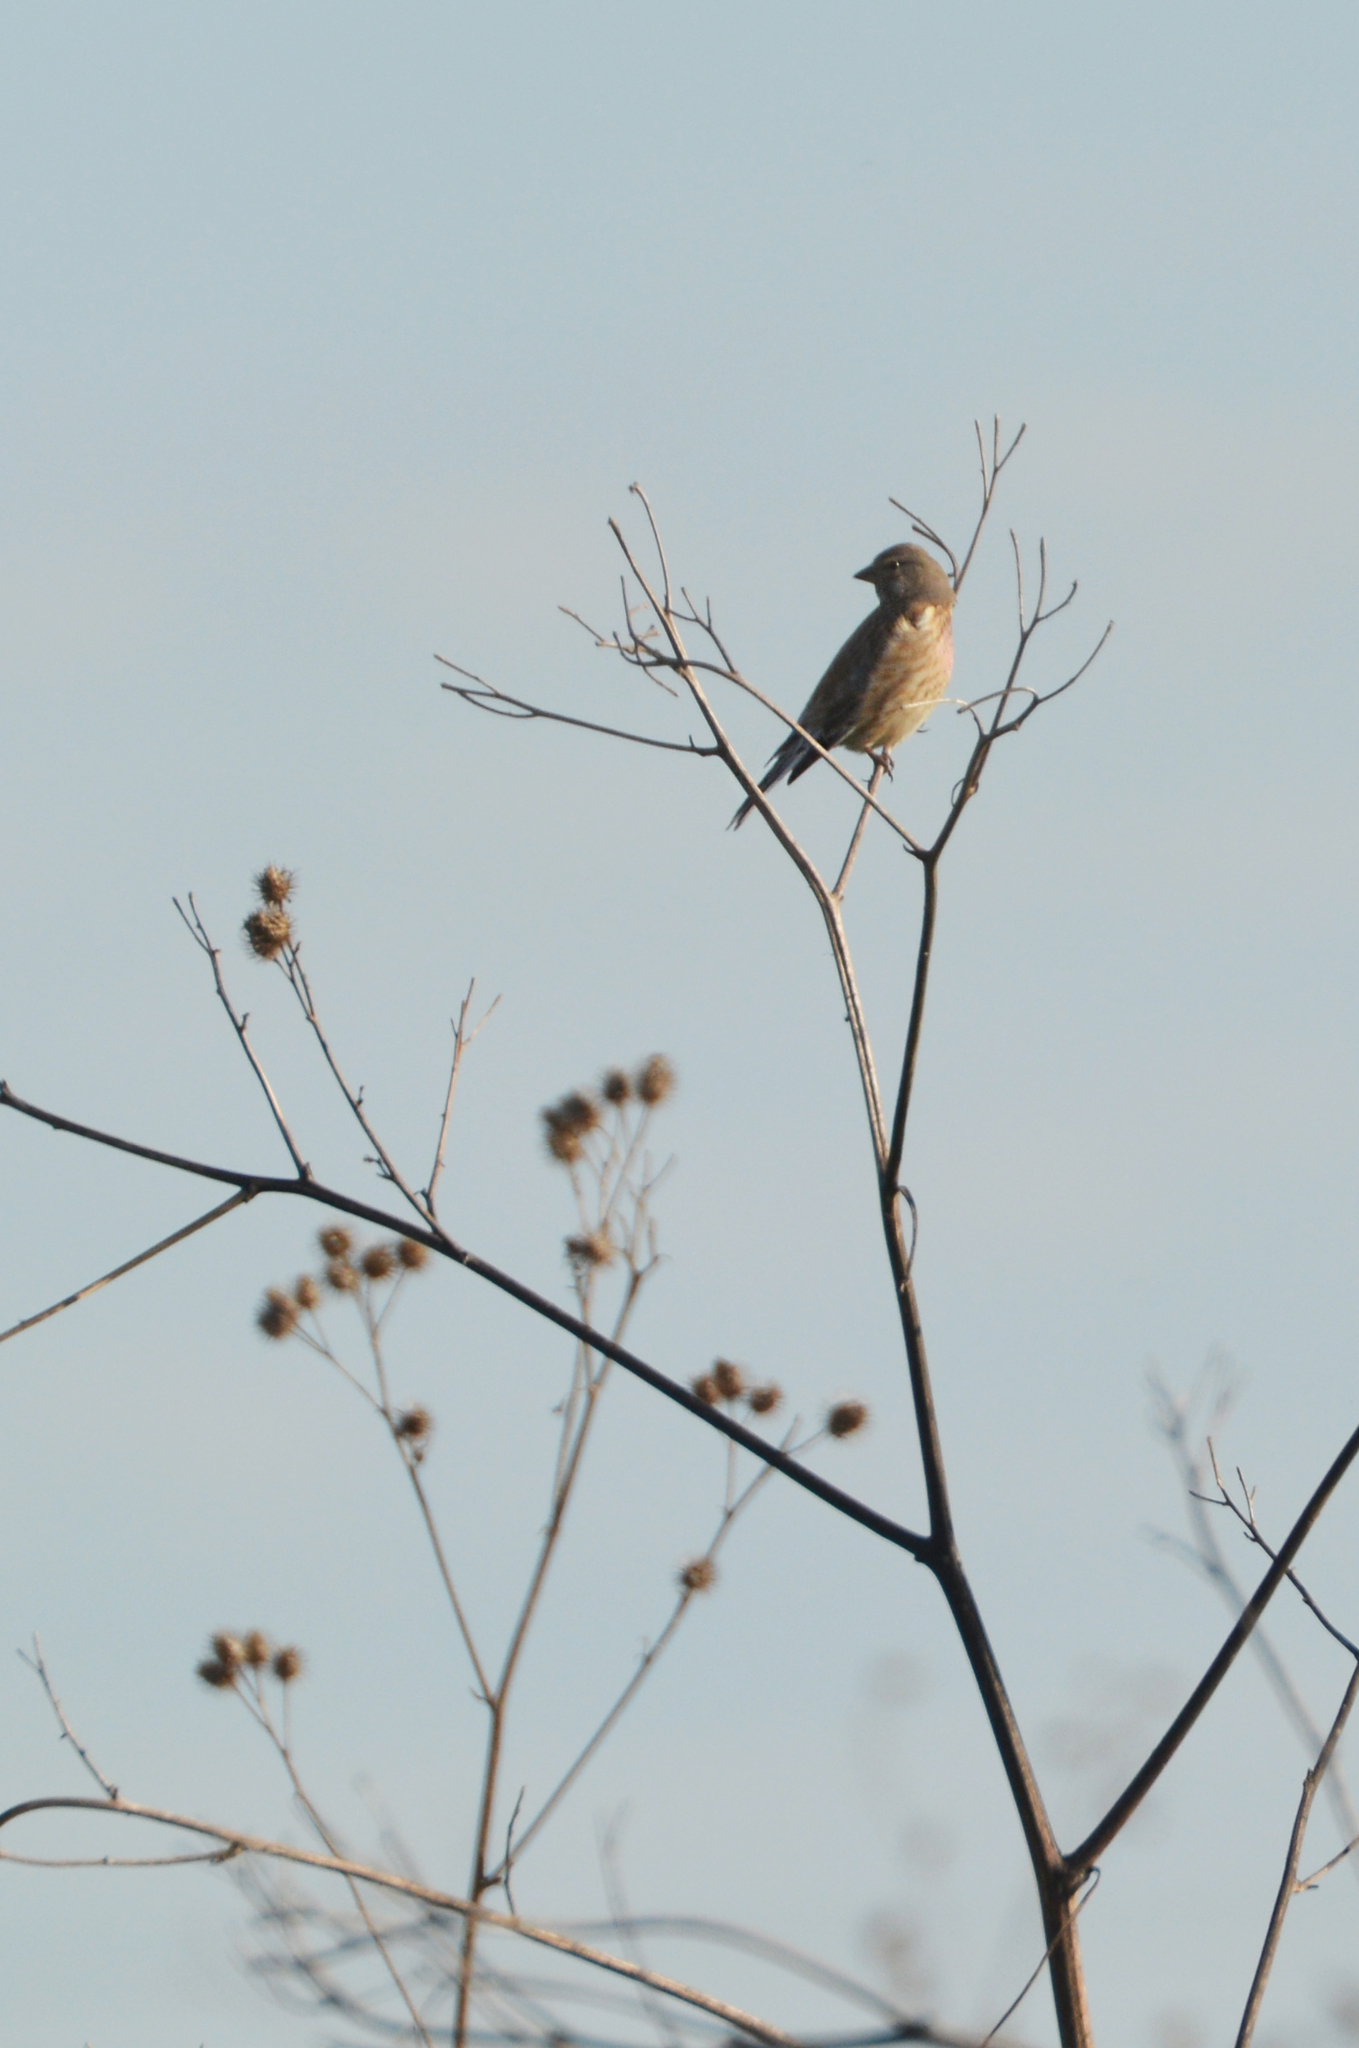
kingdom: Animalia
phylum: Chordata
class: Aves
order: Passeriformes
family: Fringillidae
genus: Linaria
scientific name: Linaria cannabina
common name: Common linnet
